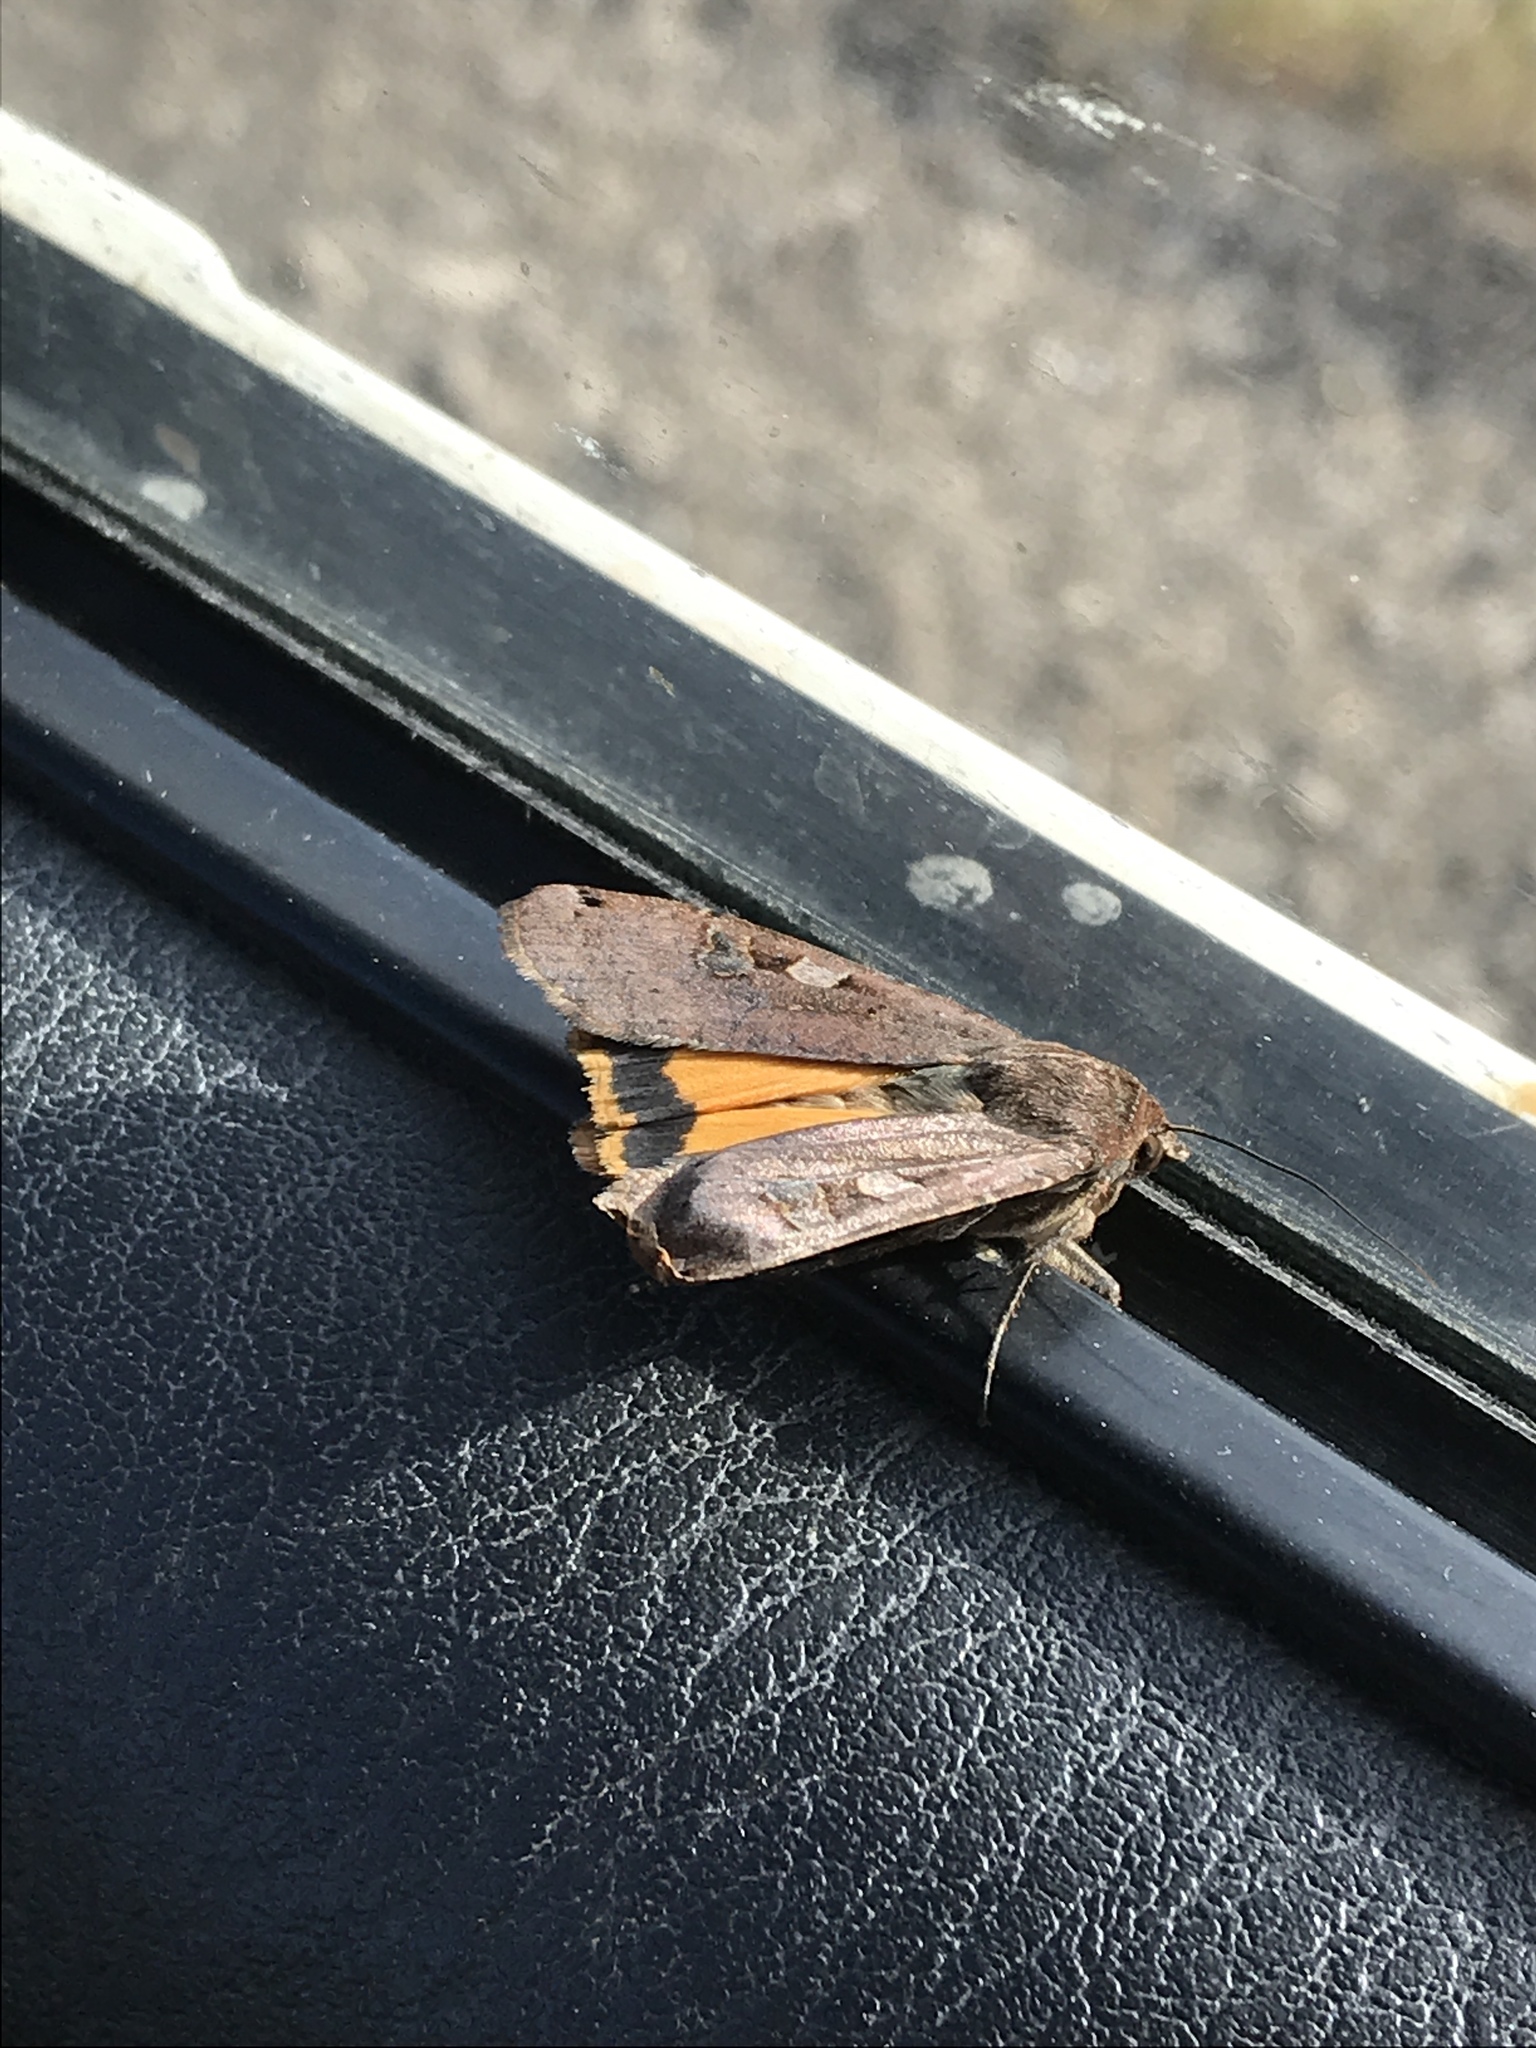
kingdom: Animalia
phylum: Arthropoda
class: Insecta
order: Lepidoptera
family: Noctuidae
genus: Noctua
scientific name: Noctua pronuba
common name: Large yellow underwing
